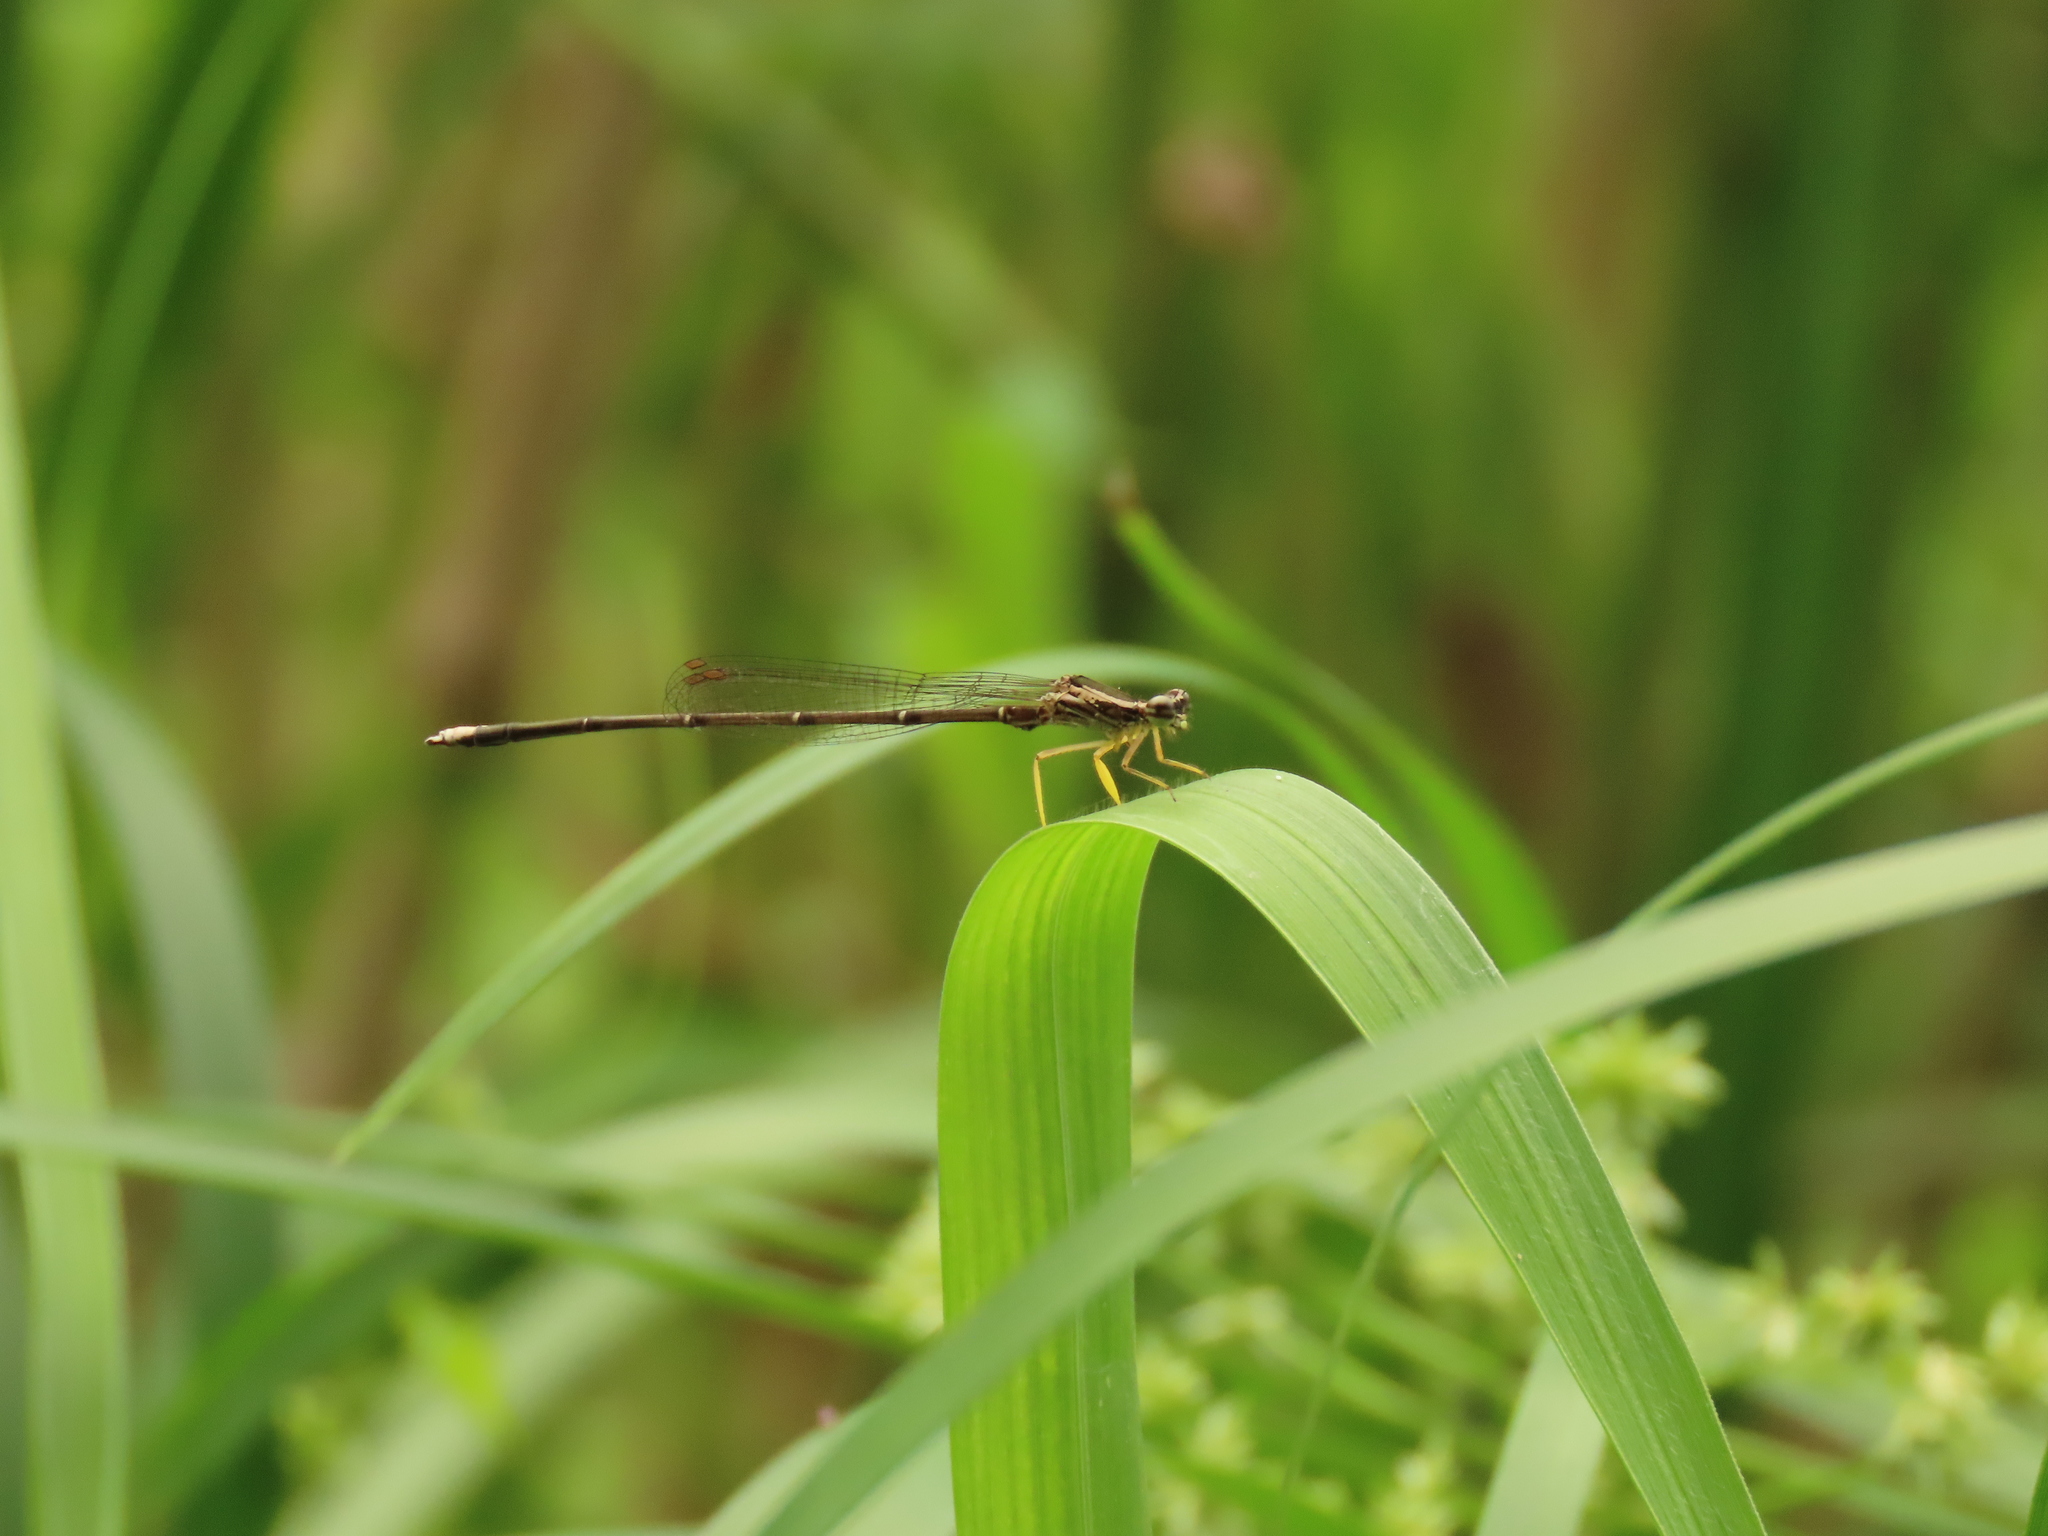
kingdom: Animalia
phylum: Arthropoda
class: Insecta
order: Odonata
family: Platycnemididae
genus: Copera
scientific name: Copera marginipes
